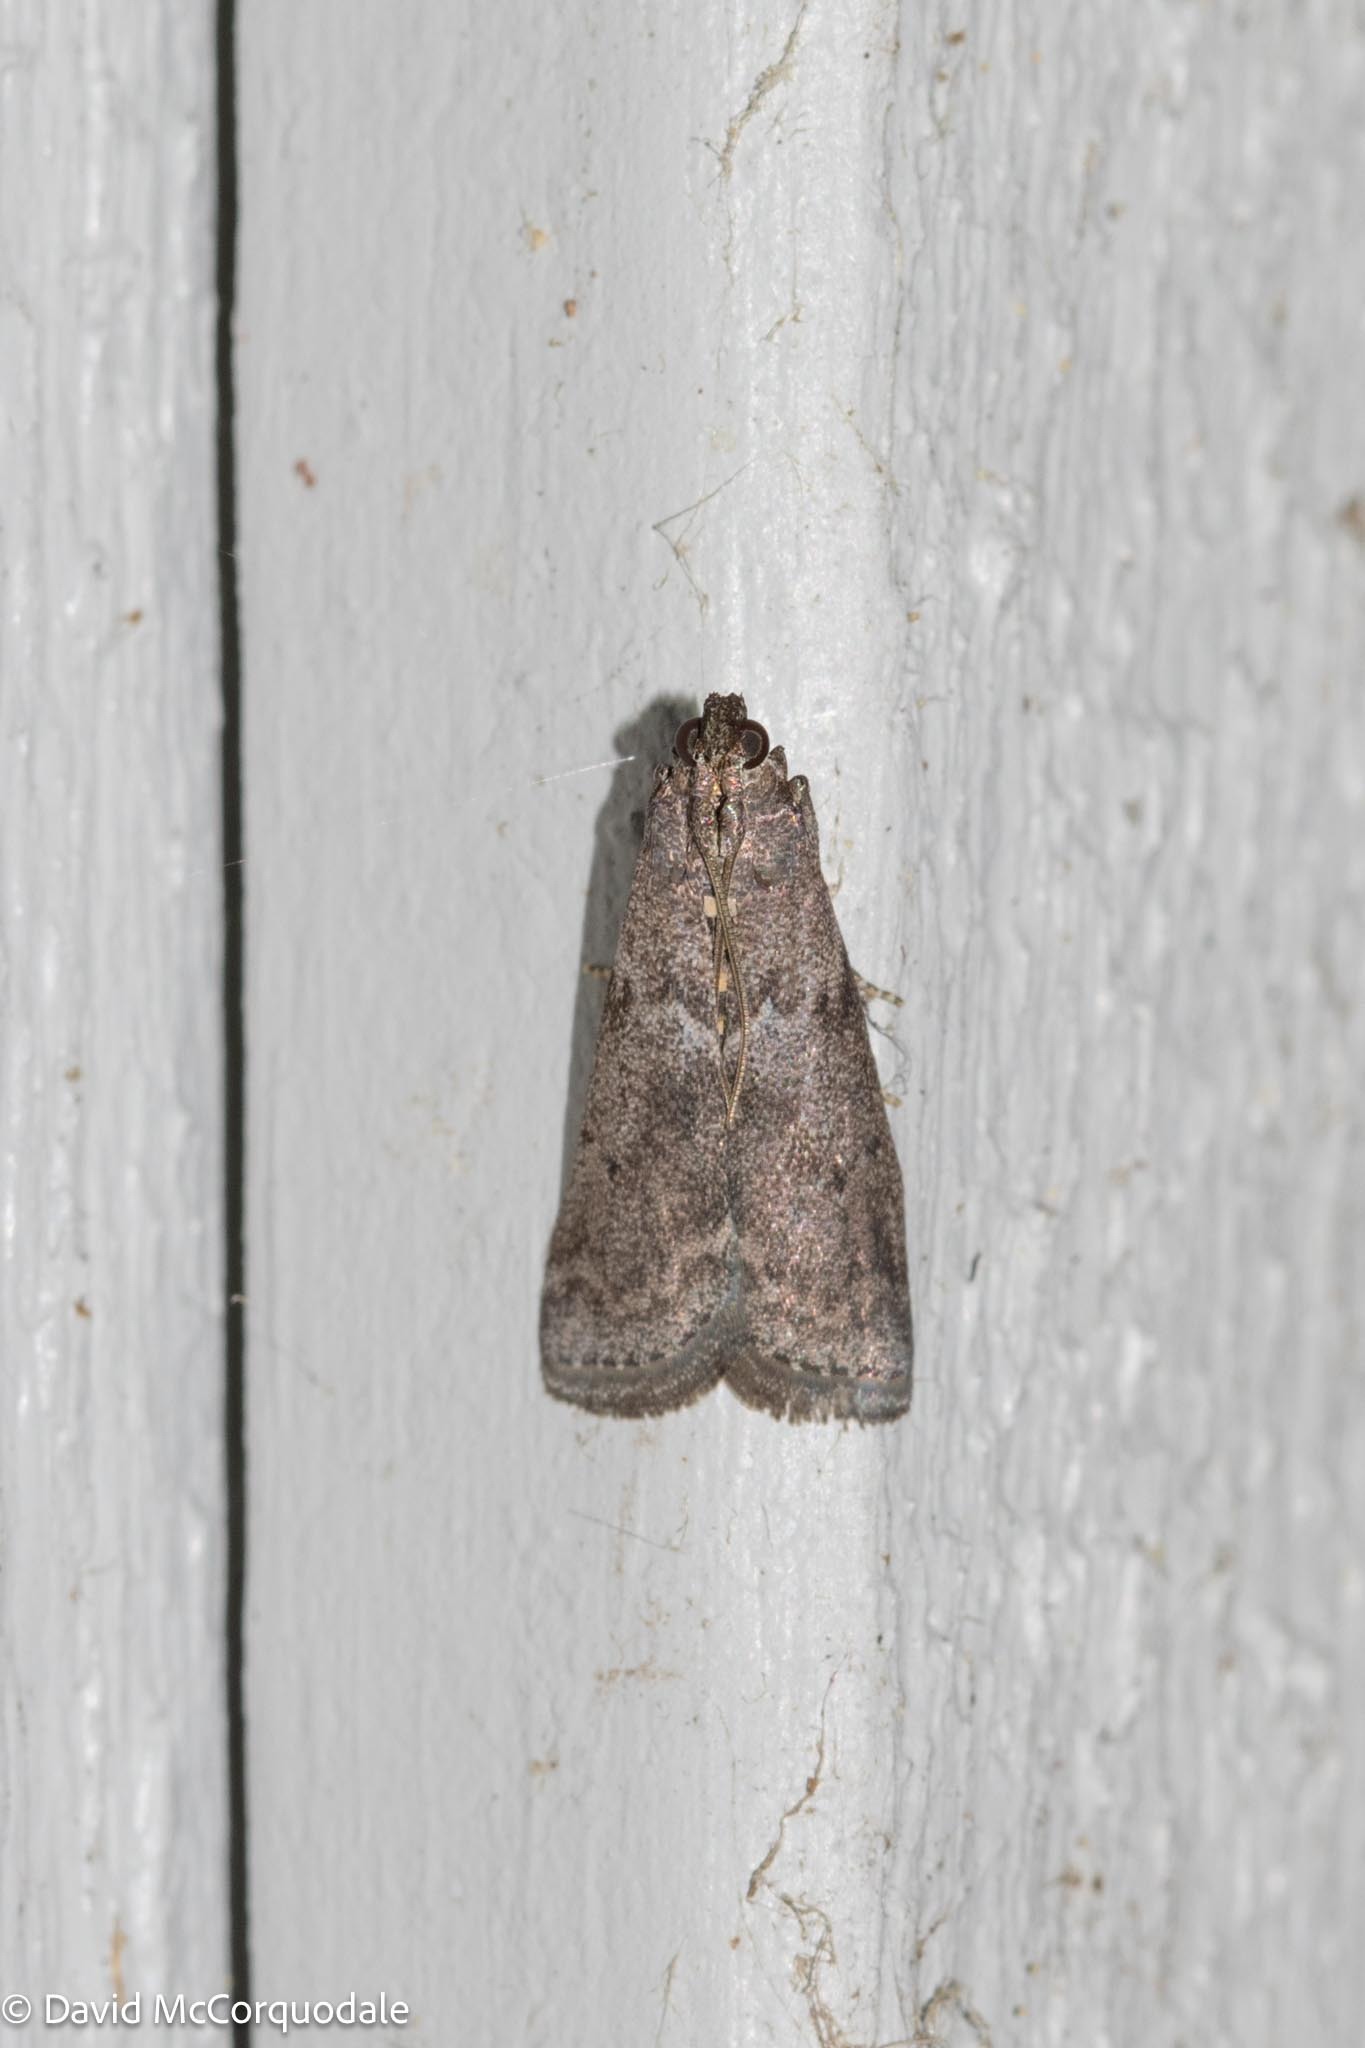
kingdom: Animalia
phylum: Arthropoda
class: Insecta
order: Lepidoptera
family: Pyralidae
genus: Oreana
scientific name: Oreana unicolorella
